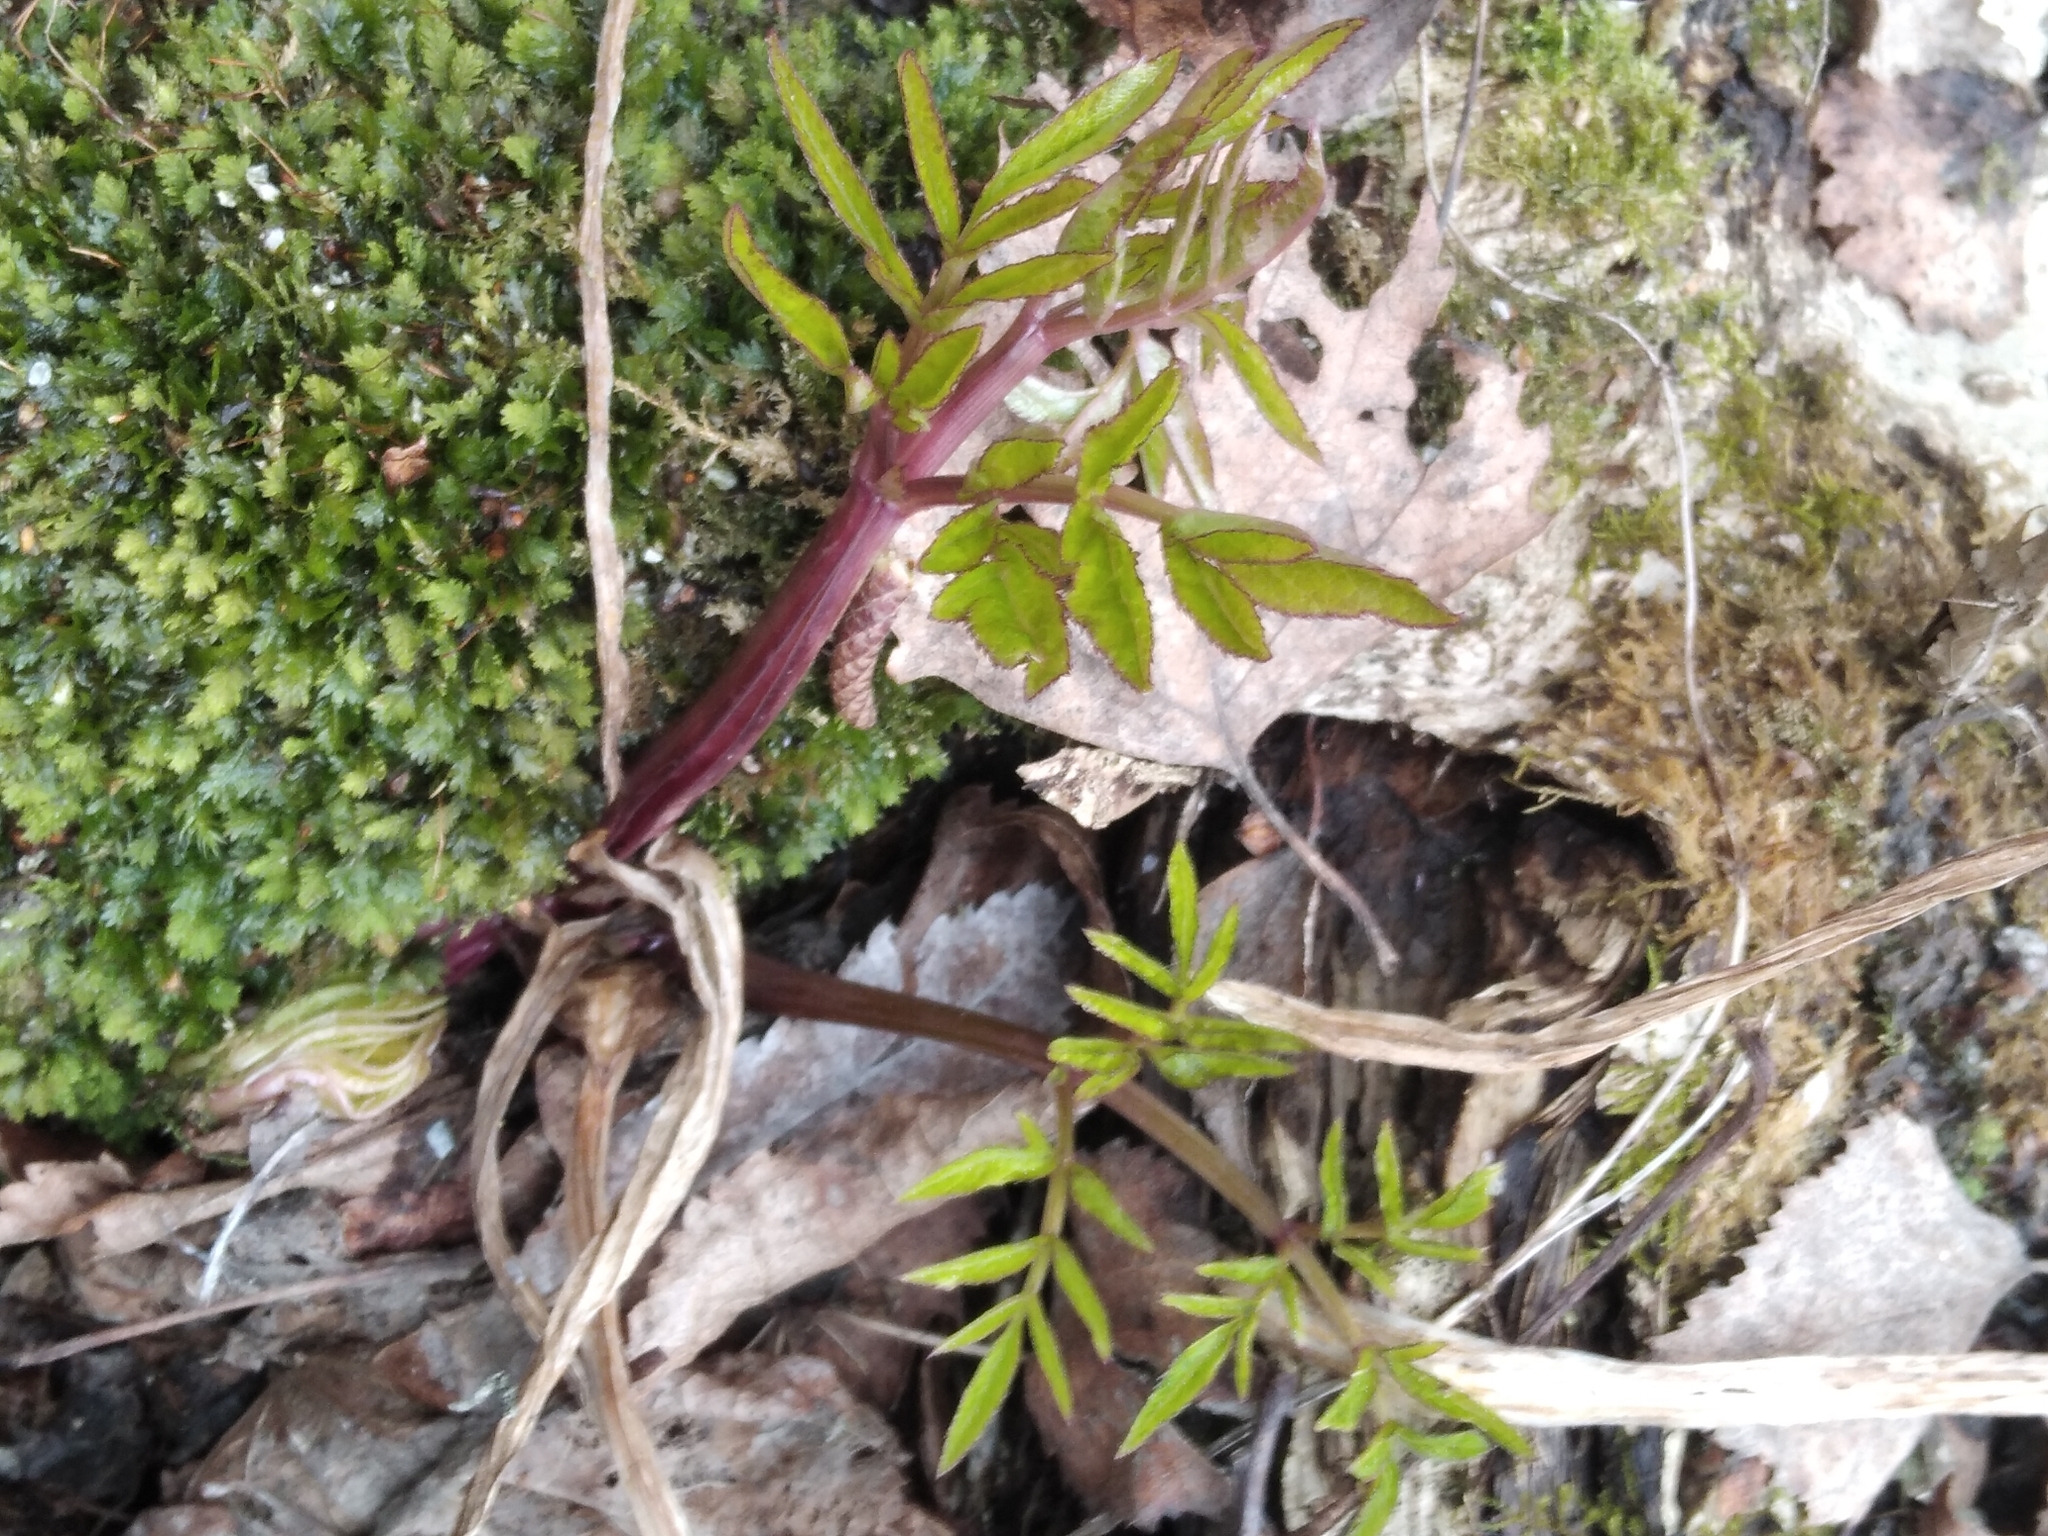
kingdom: Plantae
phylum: Tracheophyta
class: Magnoliopsida
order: Apiales
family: Apiaceae
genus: Angelica
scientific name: Angelica sylvestris
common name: Wild angelica
